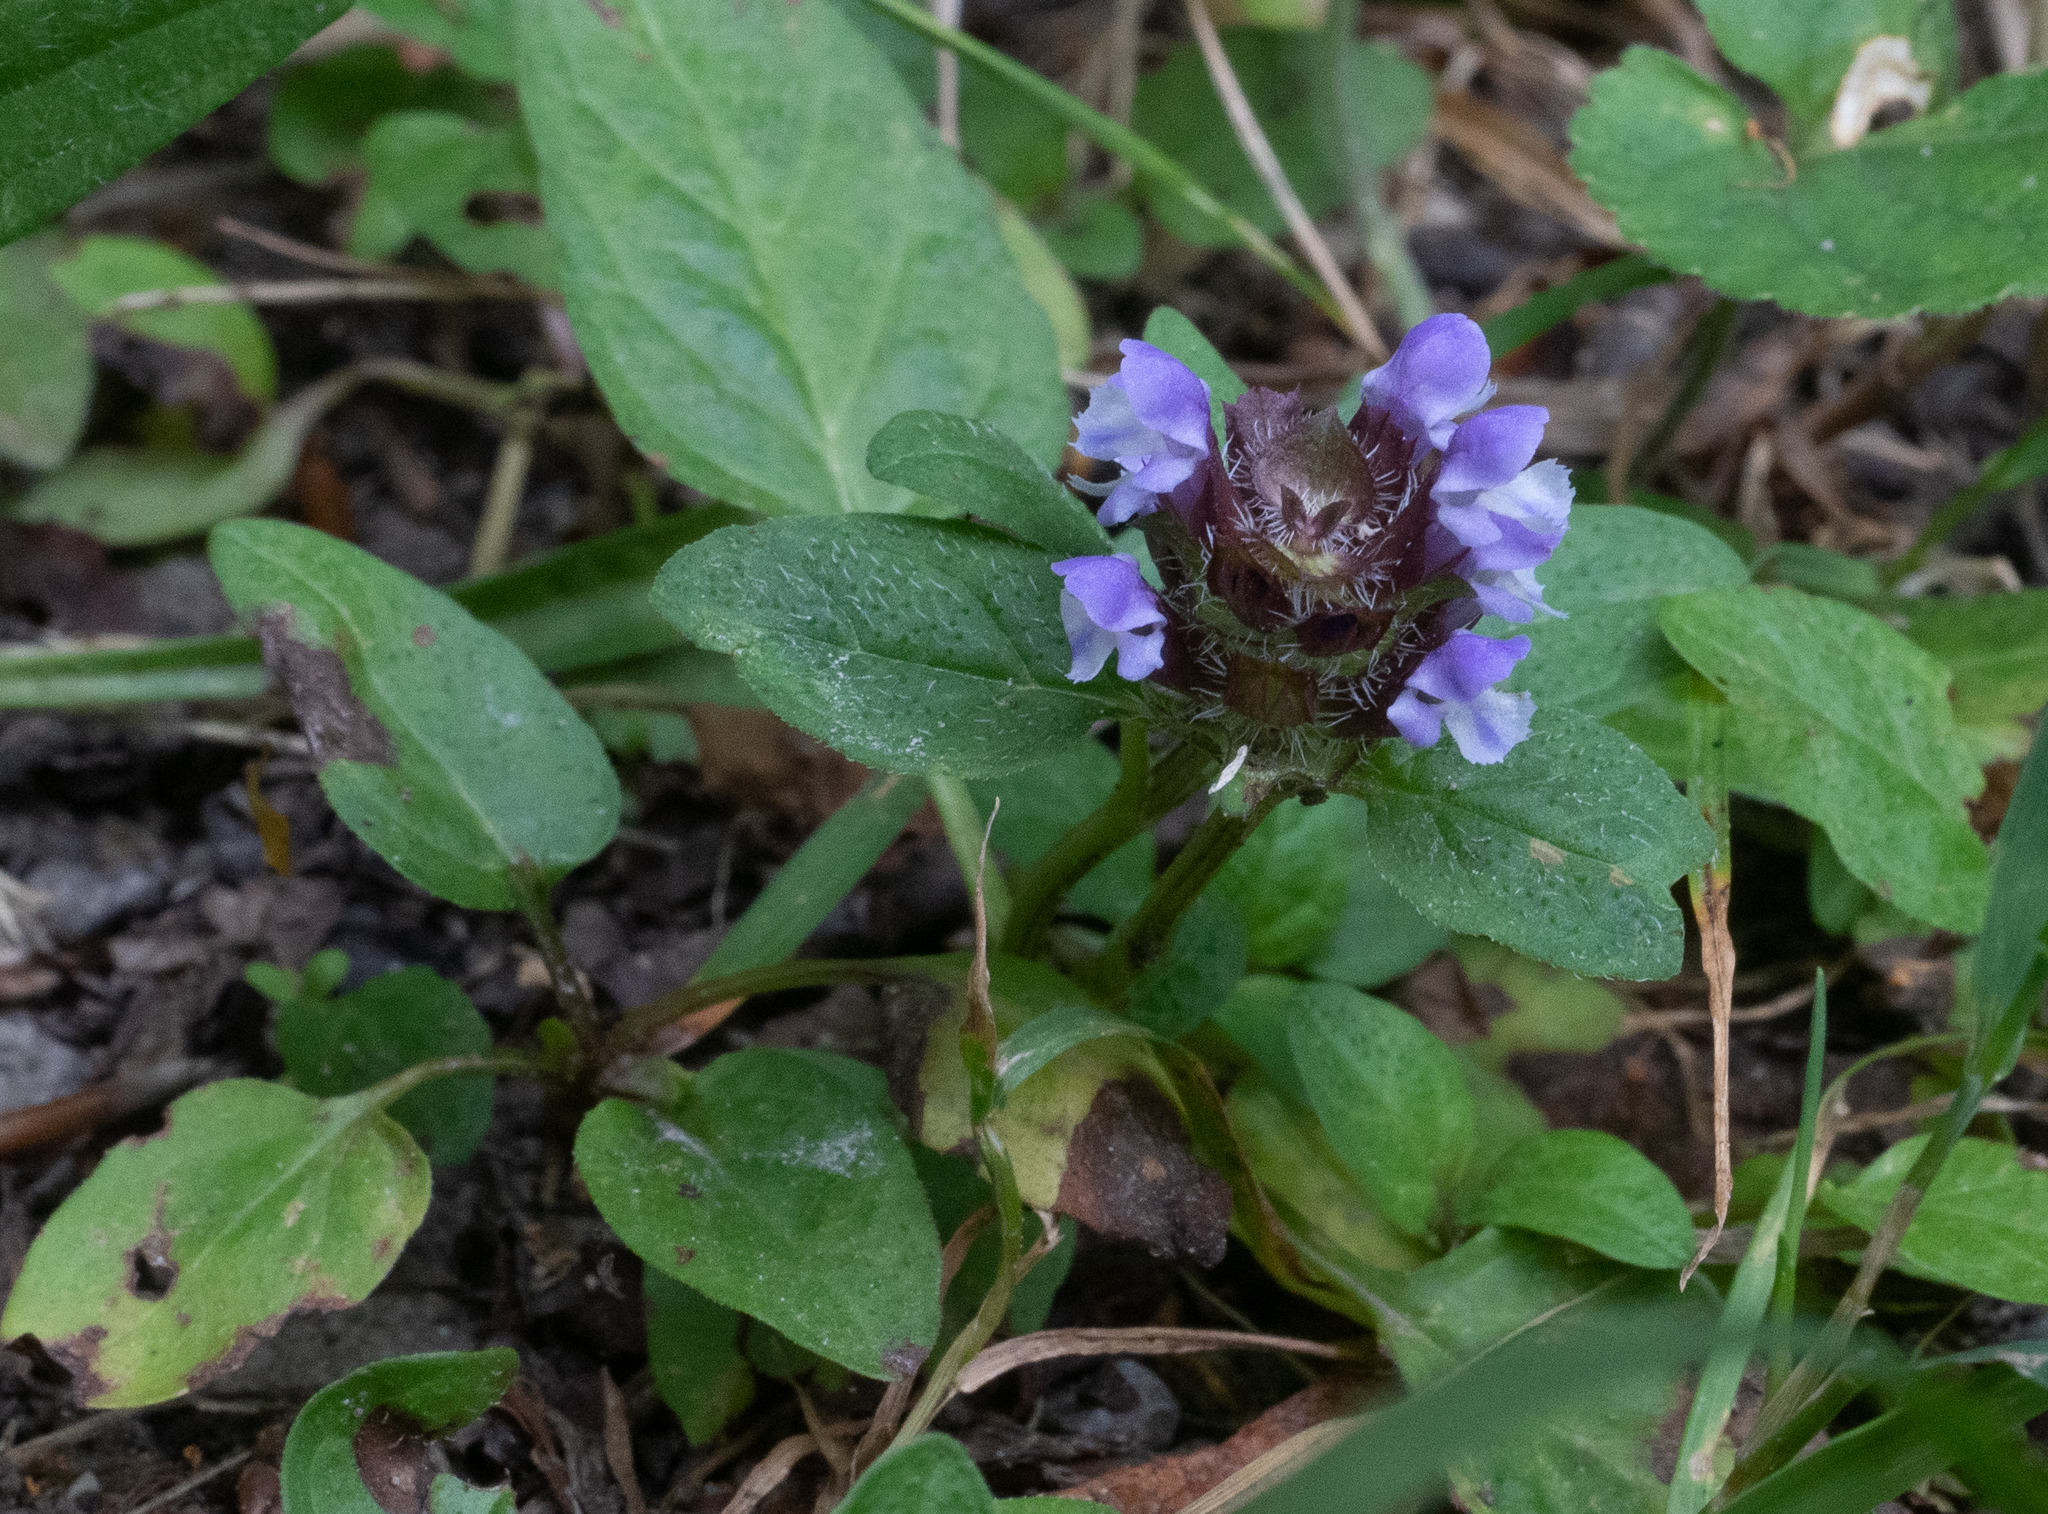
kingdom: Plantae
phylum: Tracheophyta
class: Magnoliopsida
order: Lamiales
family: Lamiaceae
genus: Prunella
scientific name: Prunella vulgaris
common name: Heal-all
